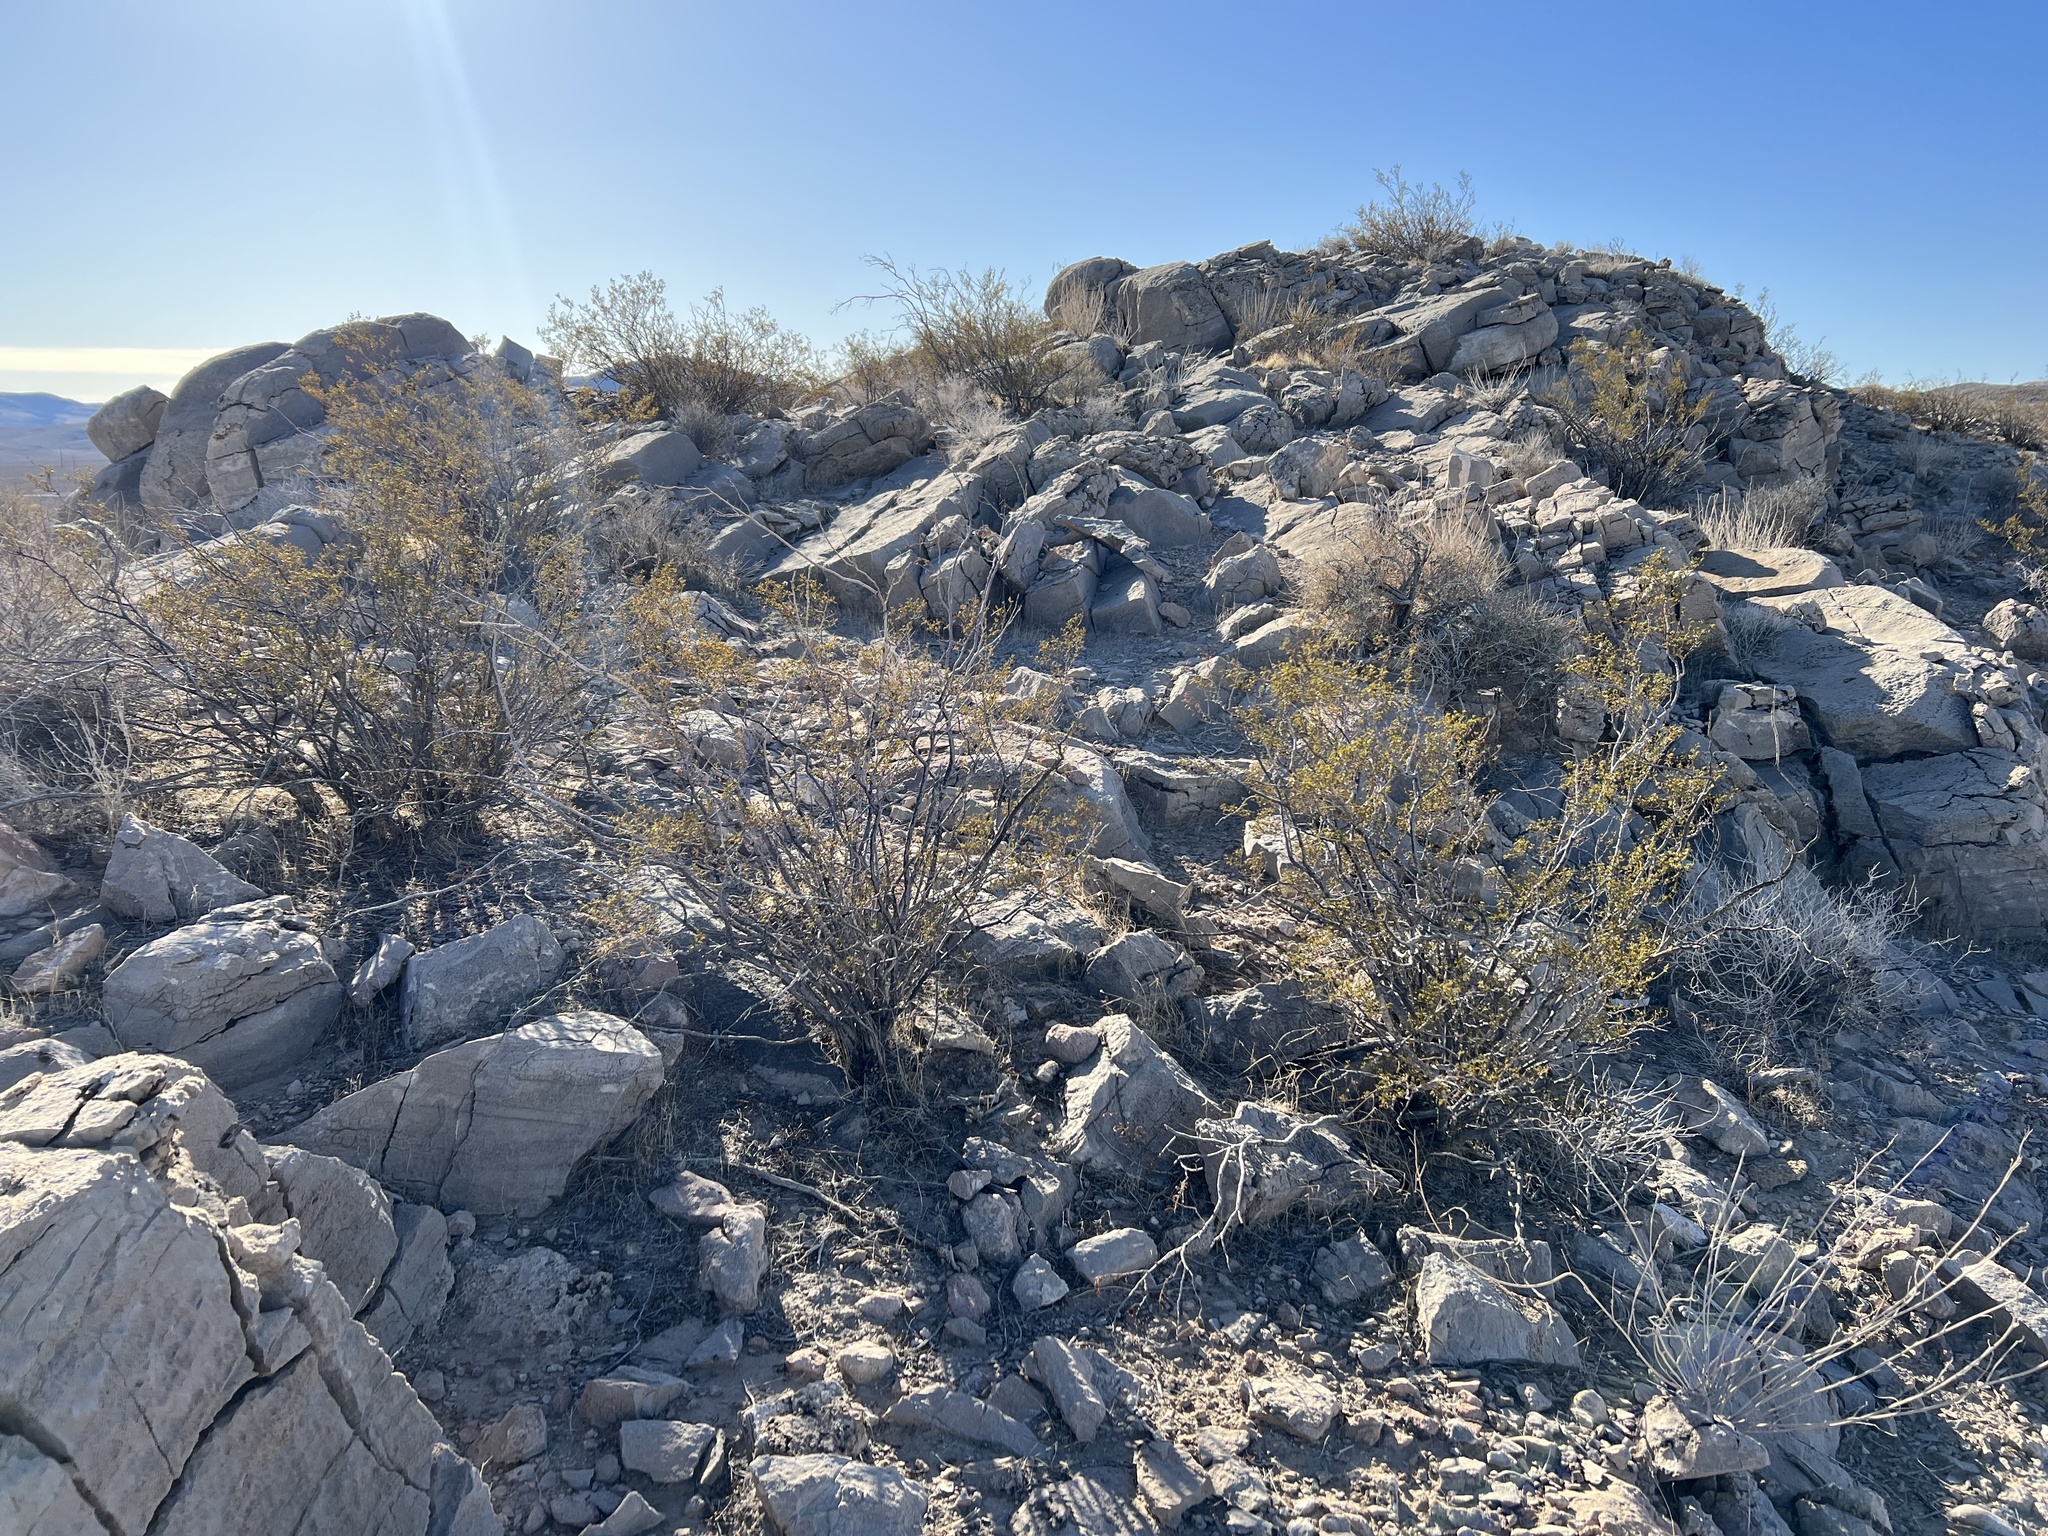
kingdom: Plantae
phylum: Tracheophyta
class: Magnoliopsida
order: Zygophyllales
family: Zygophyllaceae
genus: Larrea
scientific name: Larrea tridentata
